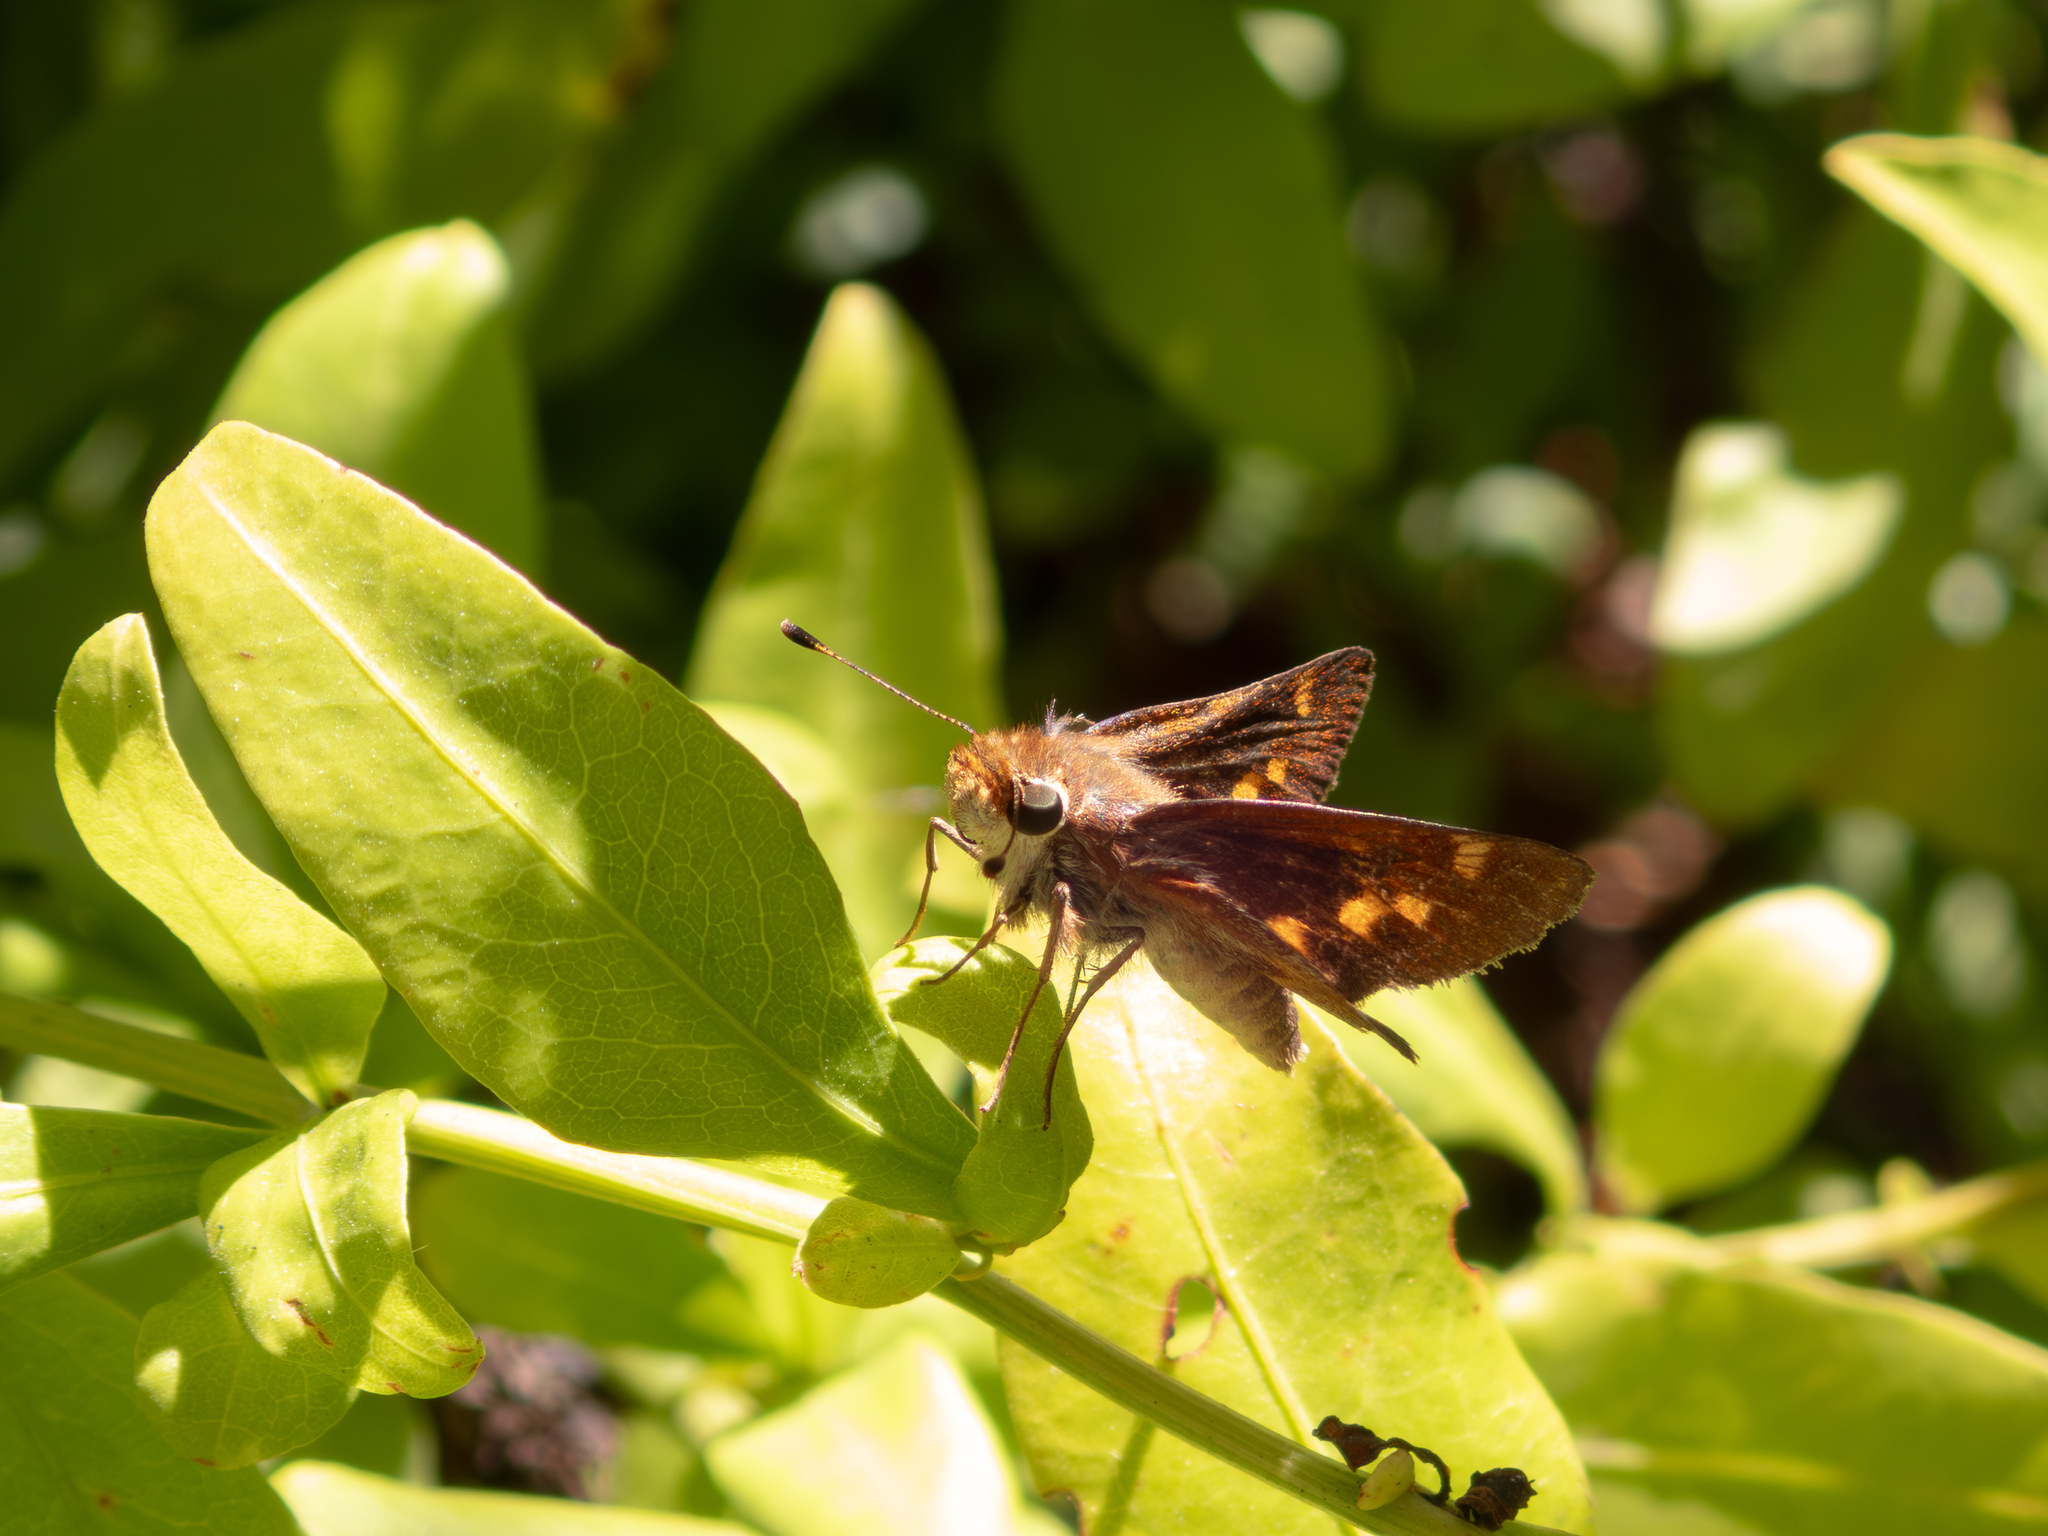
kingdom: Animalia
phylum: Arthropoda
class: Insecta
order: Lepidoptera
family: Hesperiidae
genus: Lon
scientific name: Lon melane
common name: Umber skipper
